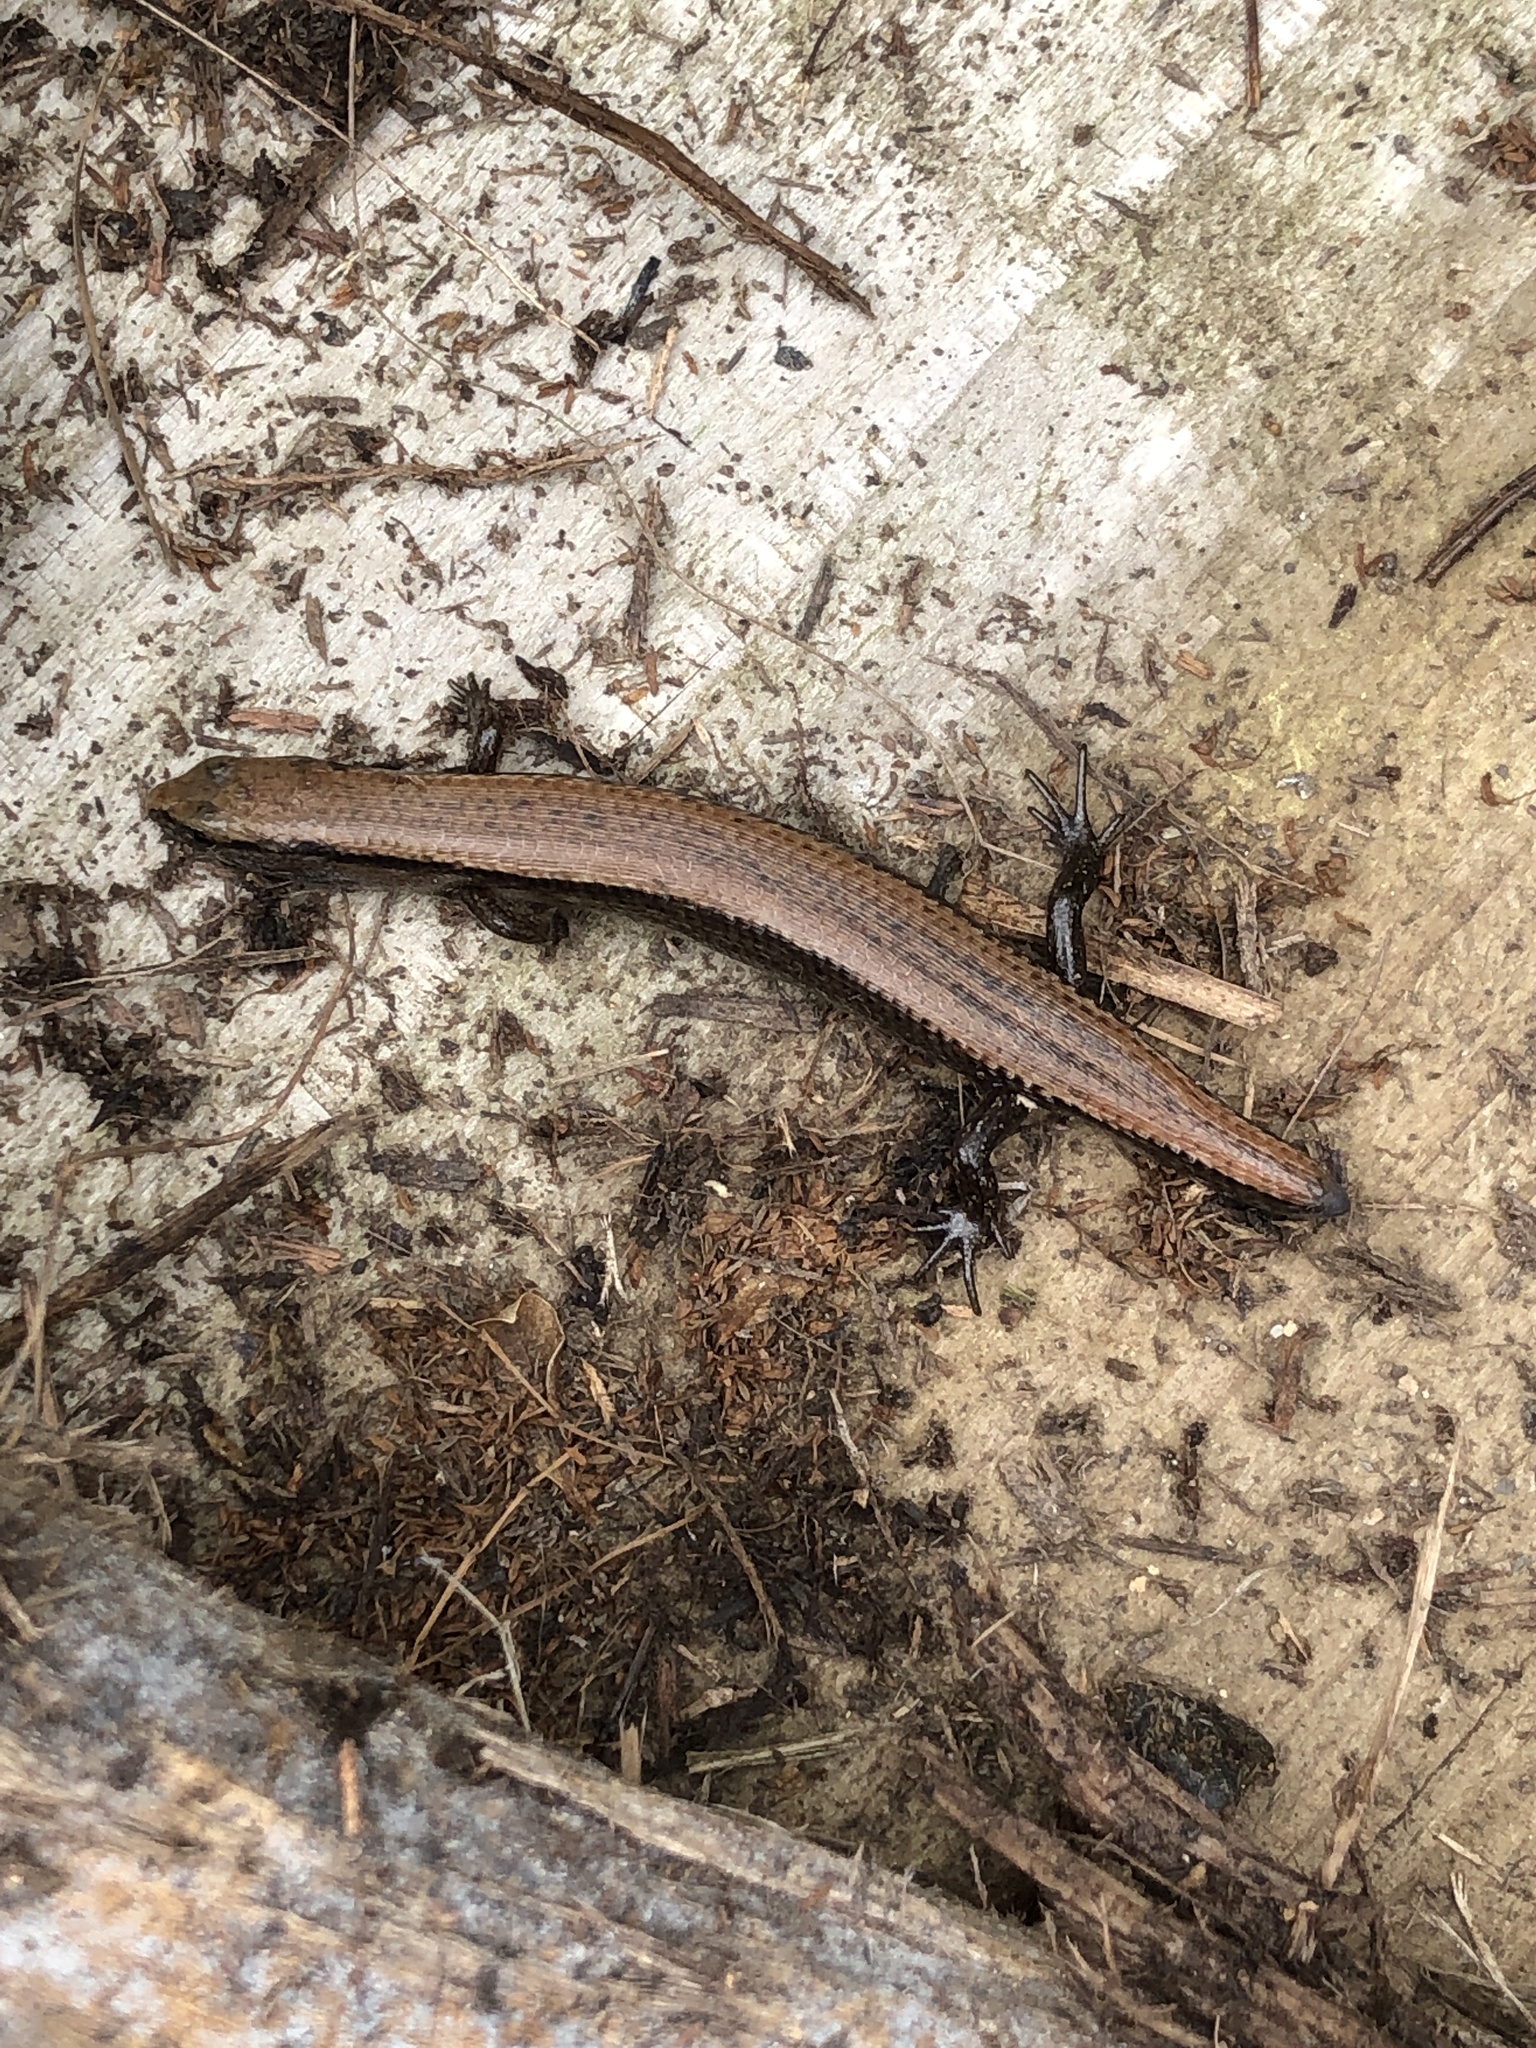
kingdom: Animalia
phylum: Chordata
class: Squamata
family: Scincidae
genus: Ateuchosaurus
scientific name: Ateuchosaurus pellopleurus
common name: Ryukyu short-legged skink
